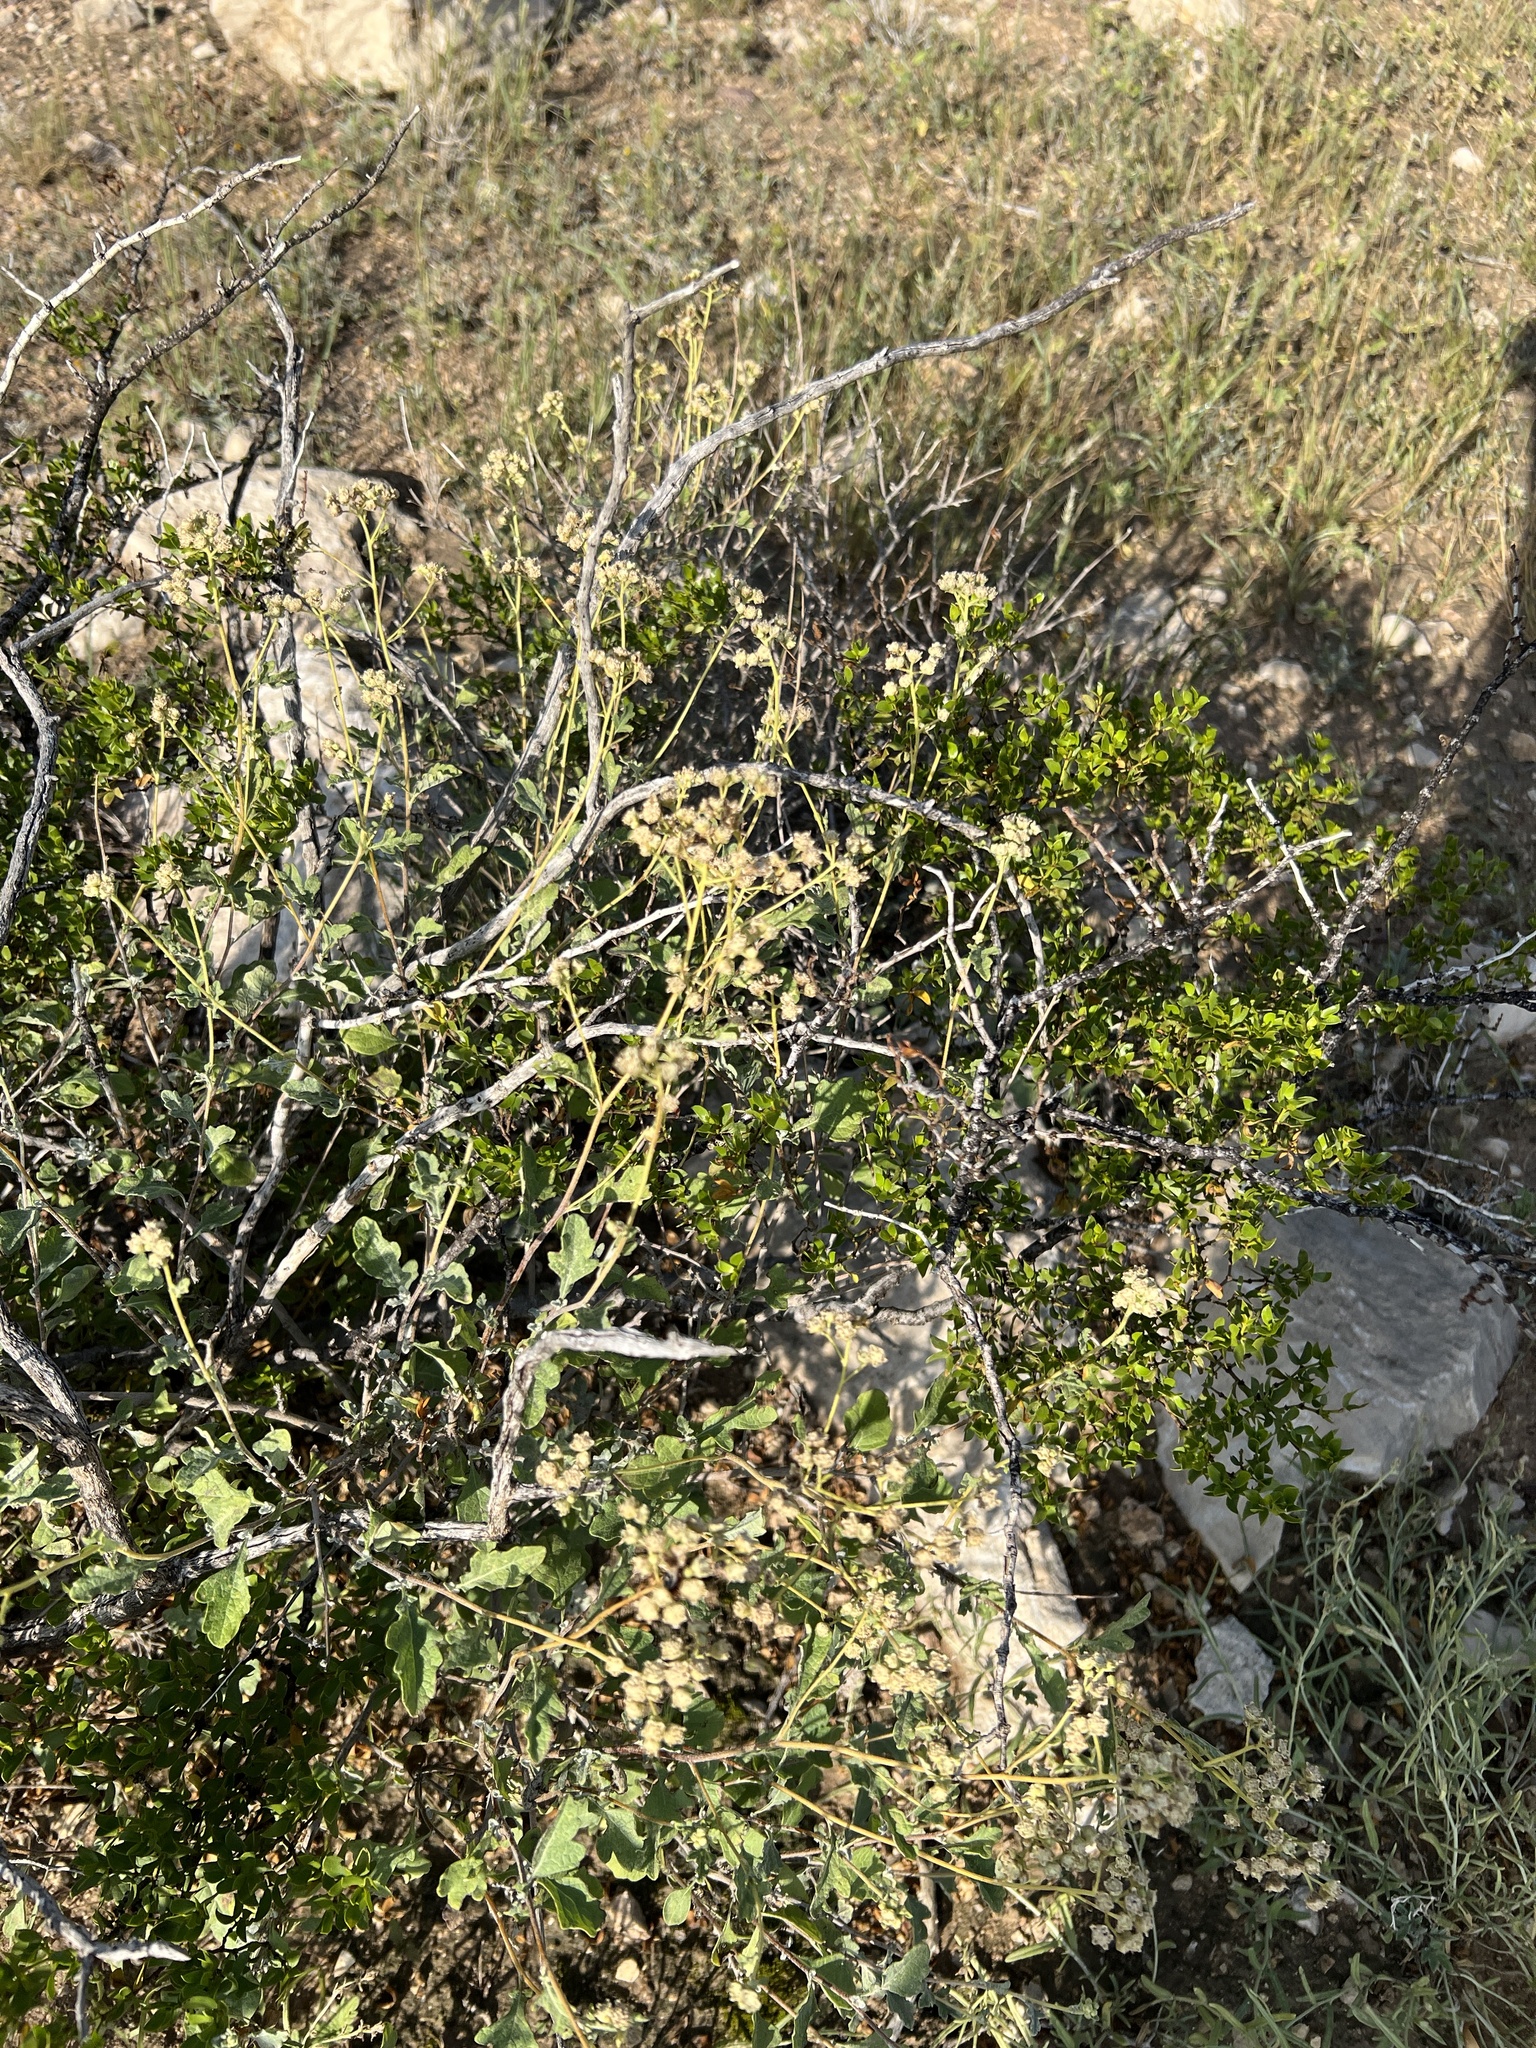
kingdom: Plantae
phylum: Tracheophyta
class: Magnoliopsida
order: Asterales
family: Asteraceae
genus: Parthenium
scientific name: Parthenium incanum
